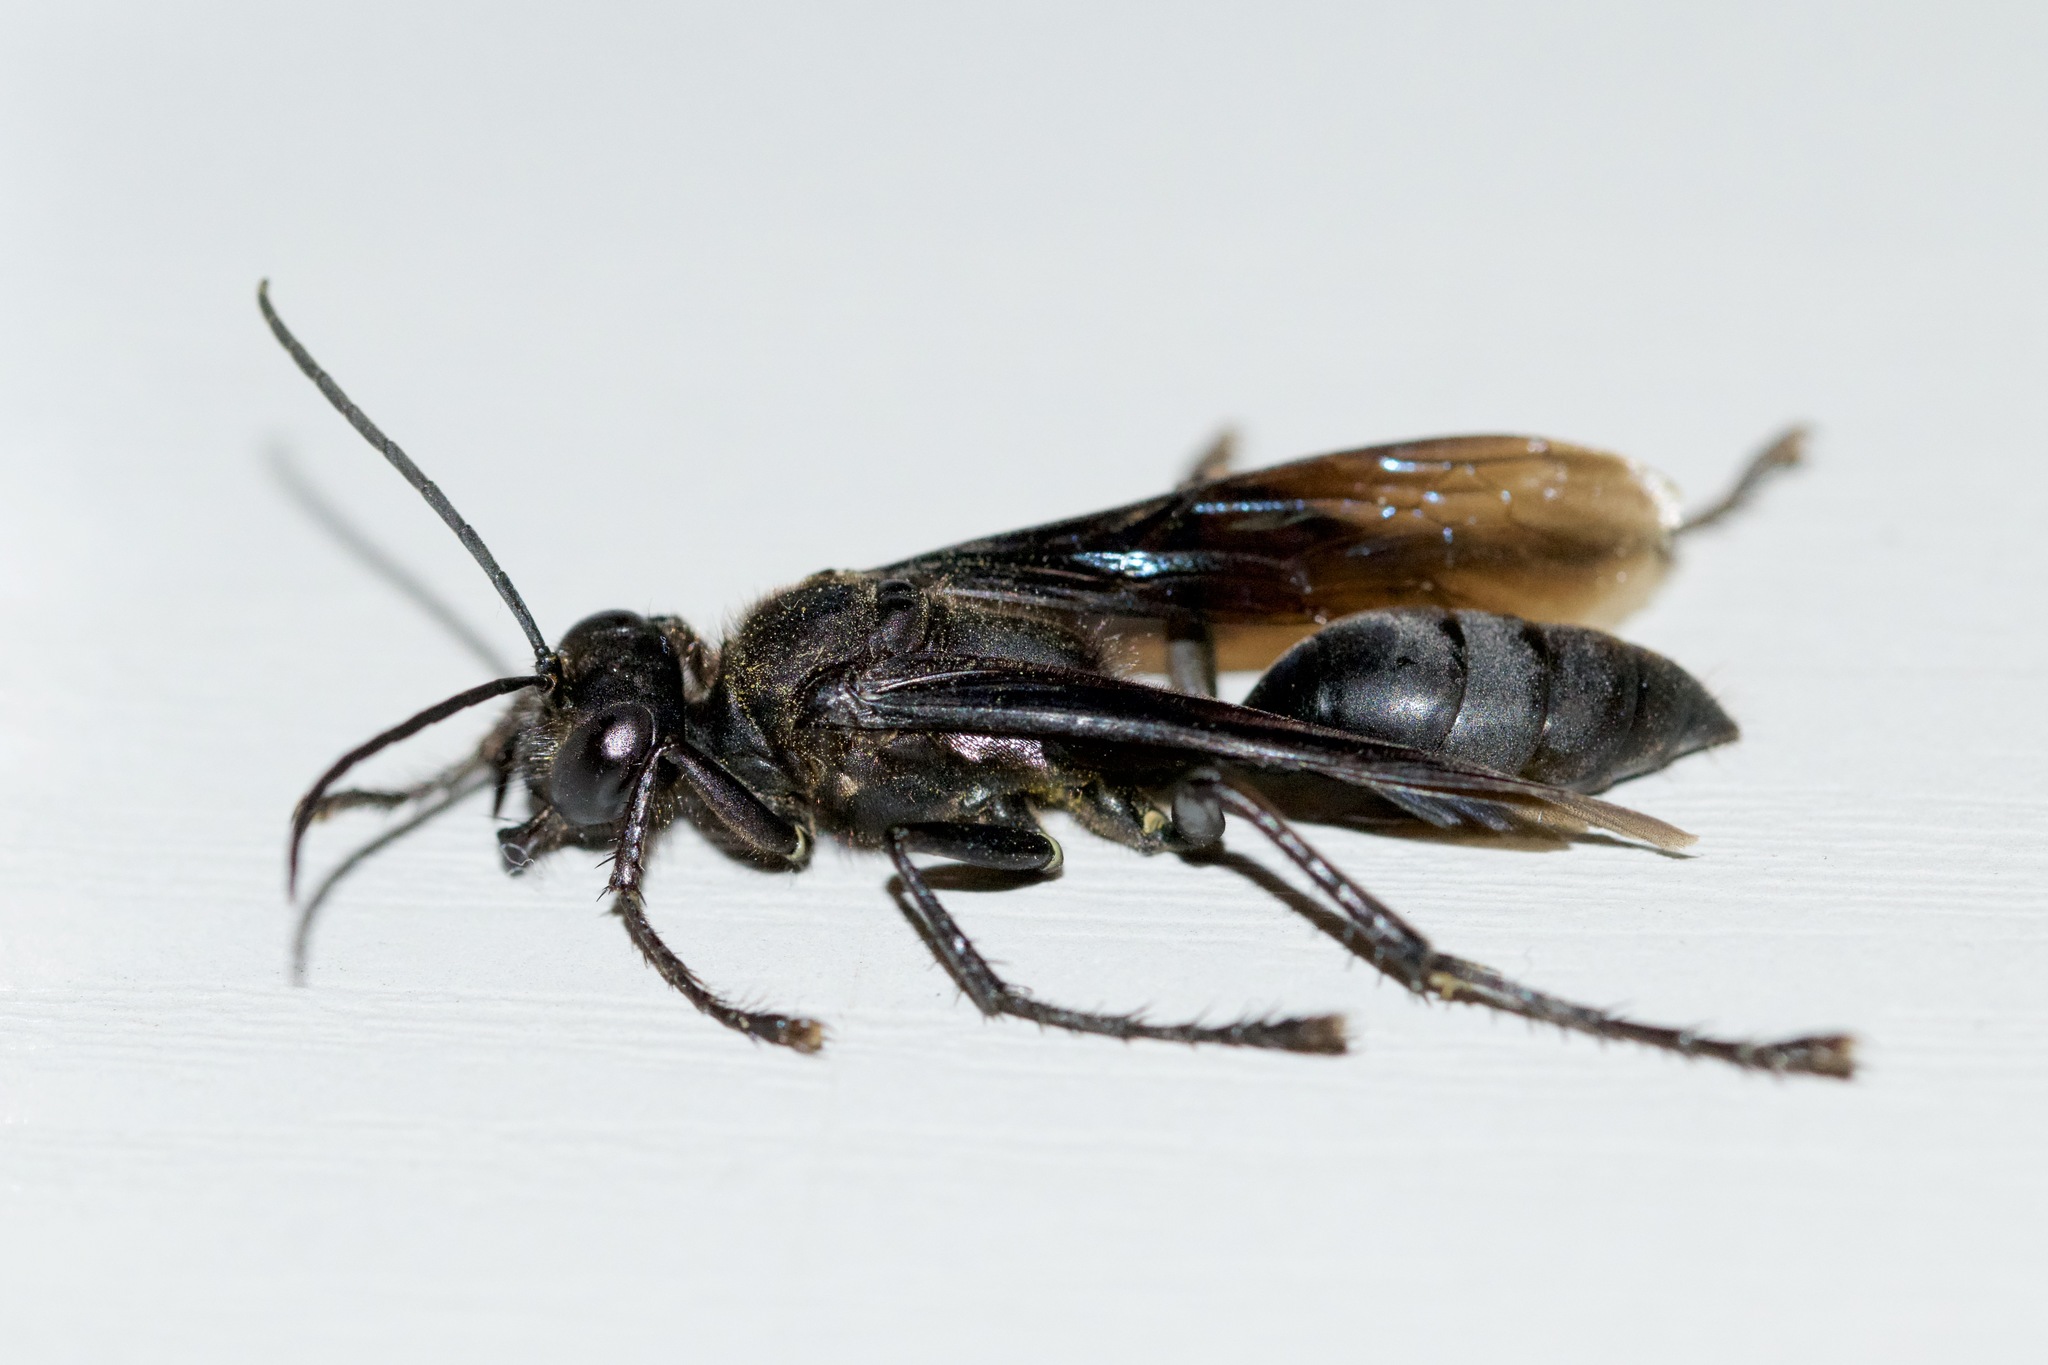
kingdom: Animalia
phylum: Arthropoda
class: Insecta
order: Hymenoptera
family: Sphecidae
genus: Sphex
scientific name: Sphex pensylvanicus
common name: Great black digger wasp
